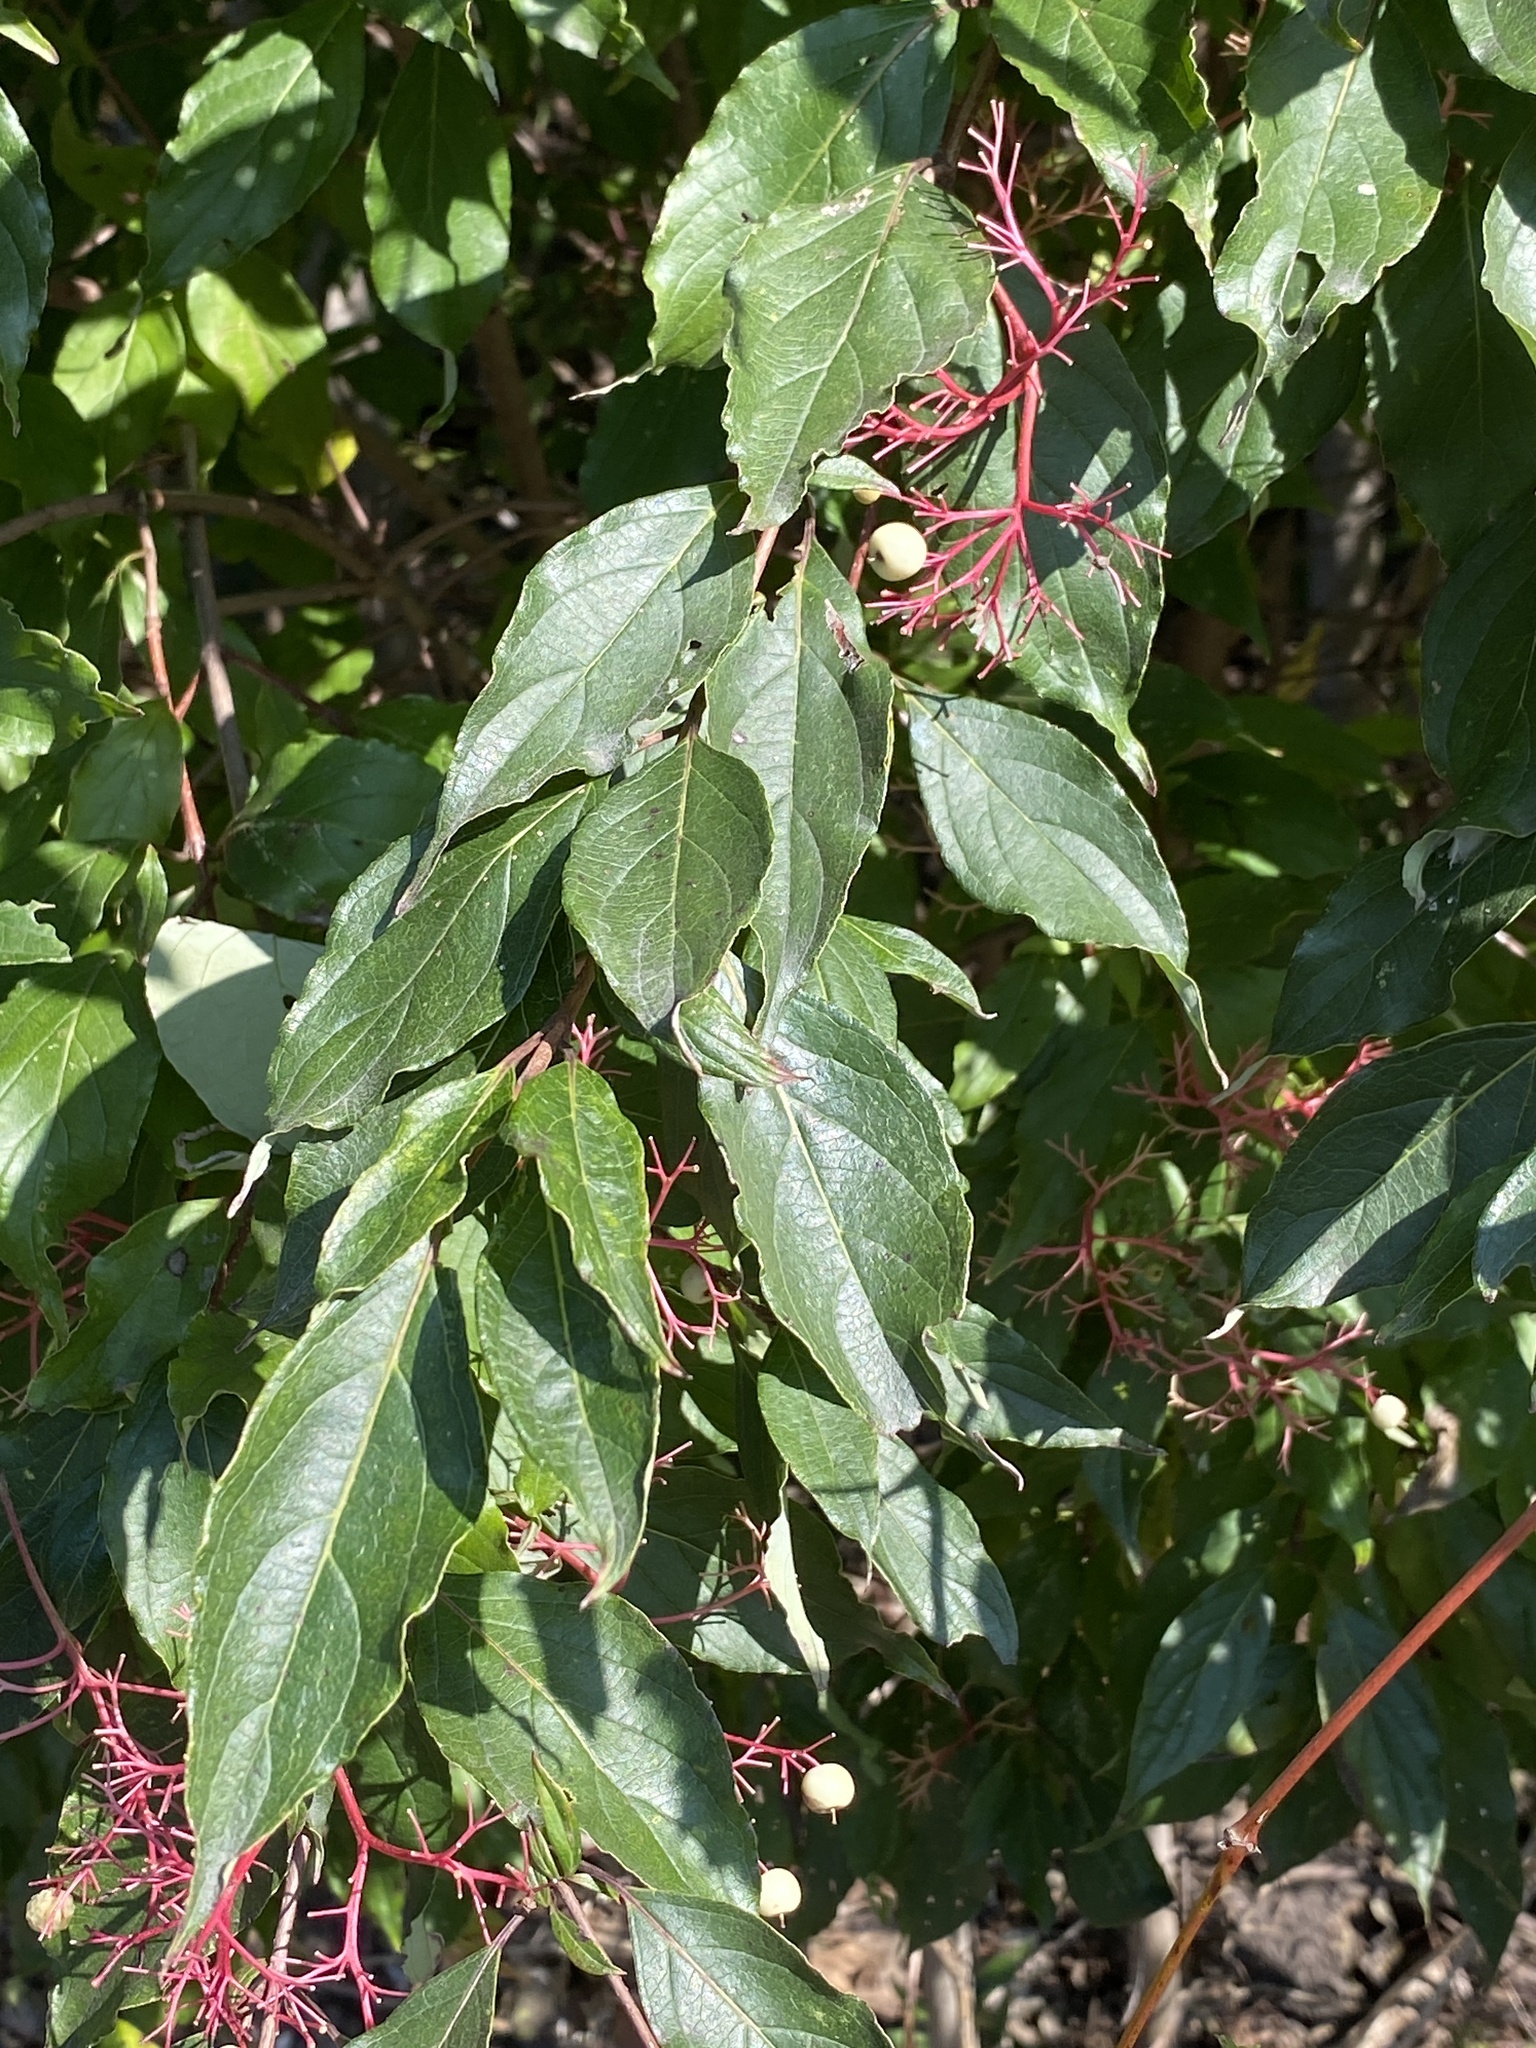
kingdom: Plantae
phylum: Tracheophyta
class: Magnoliopsida
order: Cornales
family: Cornaceae
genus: Cornus
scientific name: Cornus racemosa
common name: Panicled dogwood
